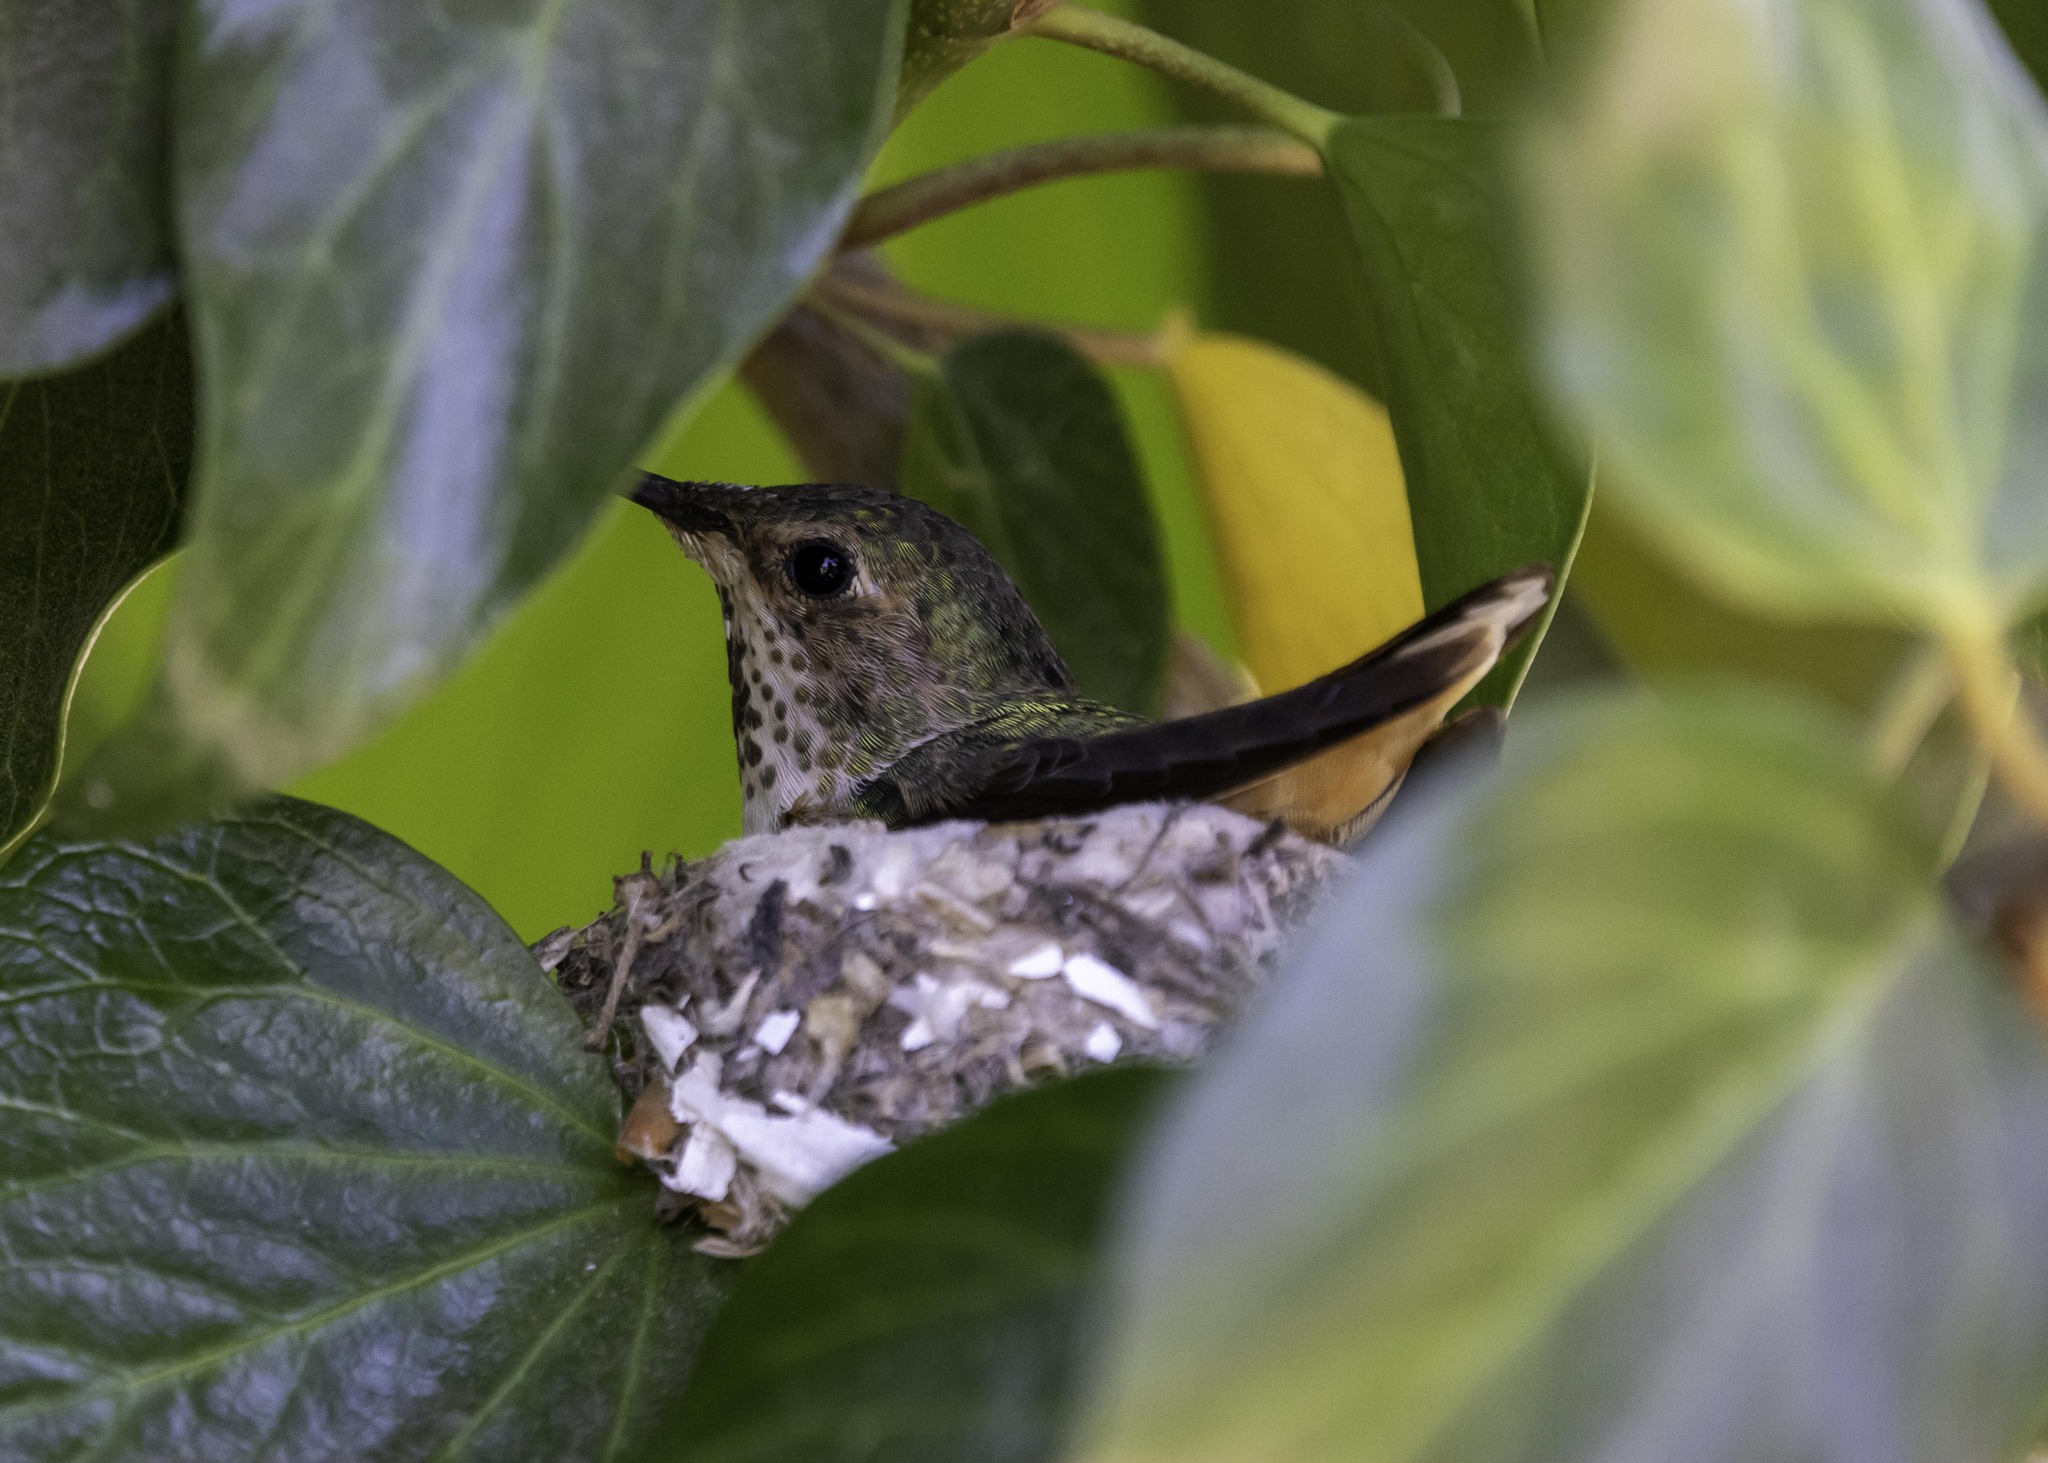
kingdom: Animalia
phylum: Chordata
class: Aves
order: Apodiformes
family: Trochilidae
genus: Selasphorus
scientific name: Selasphorus sasin
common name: Allen's hummingbird
